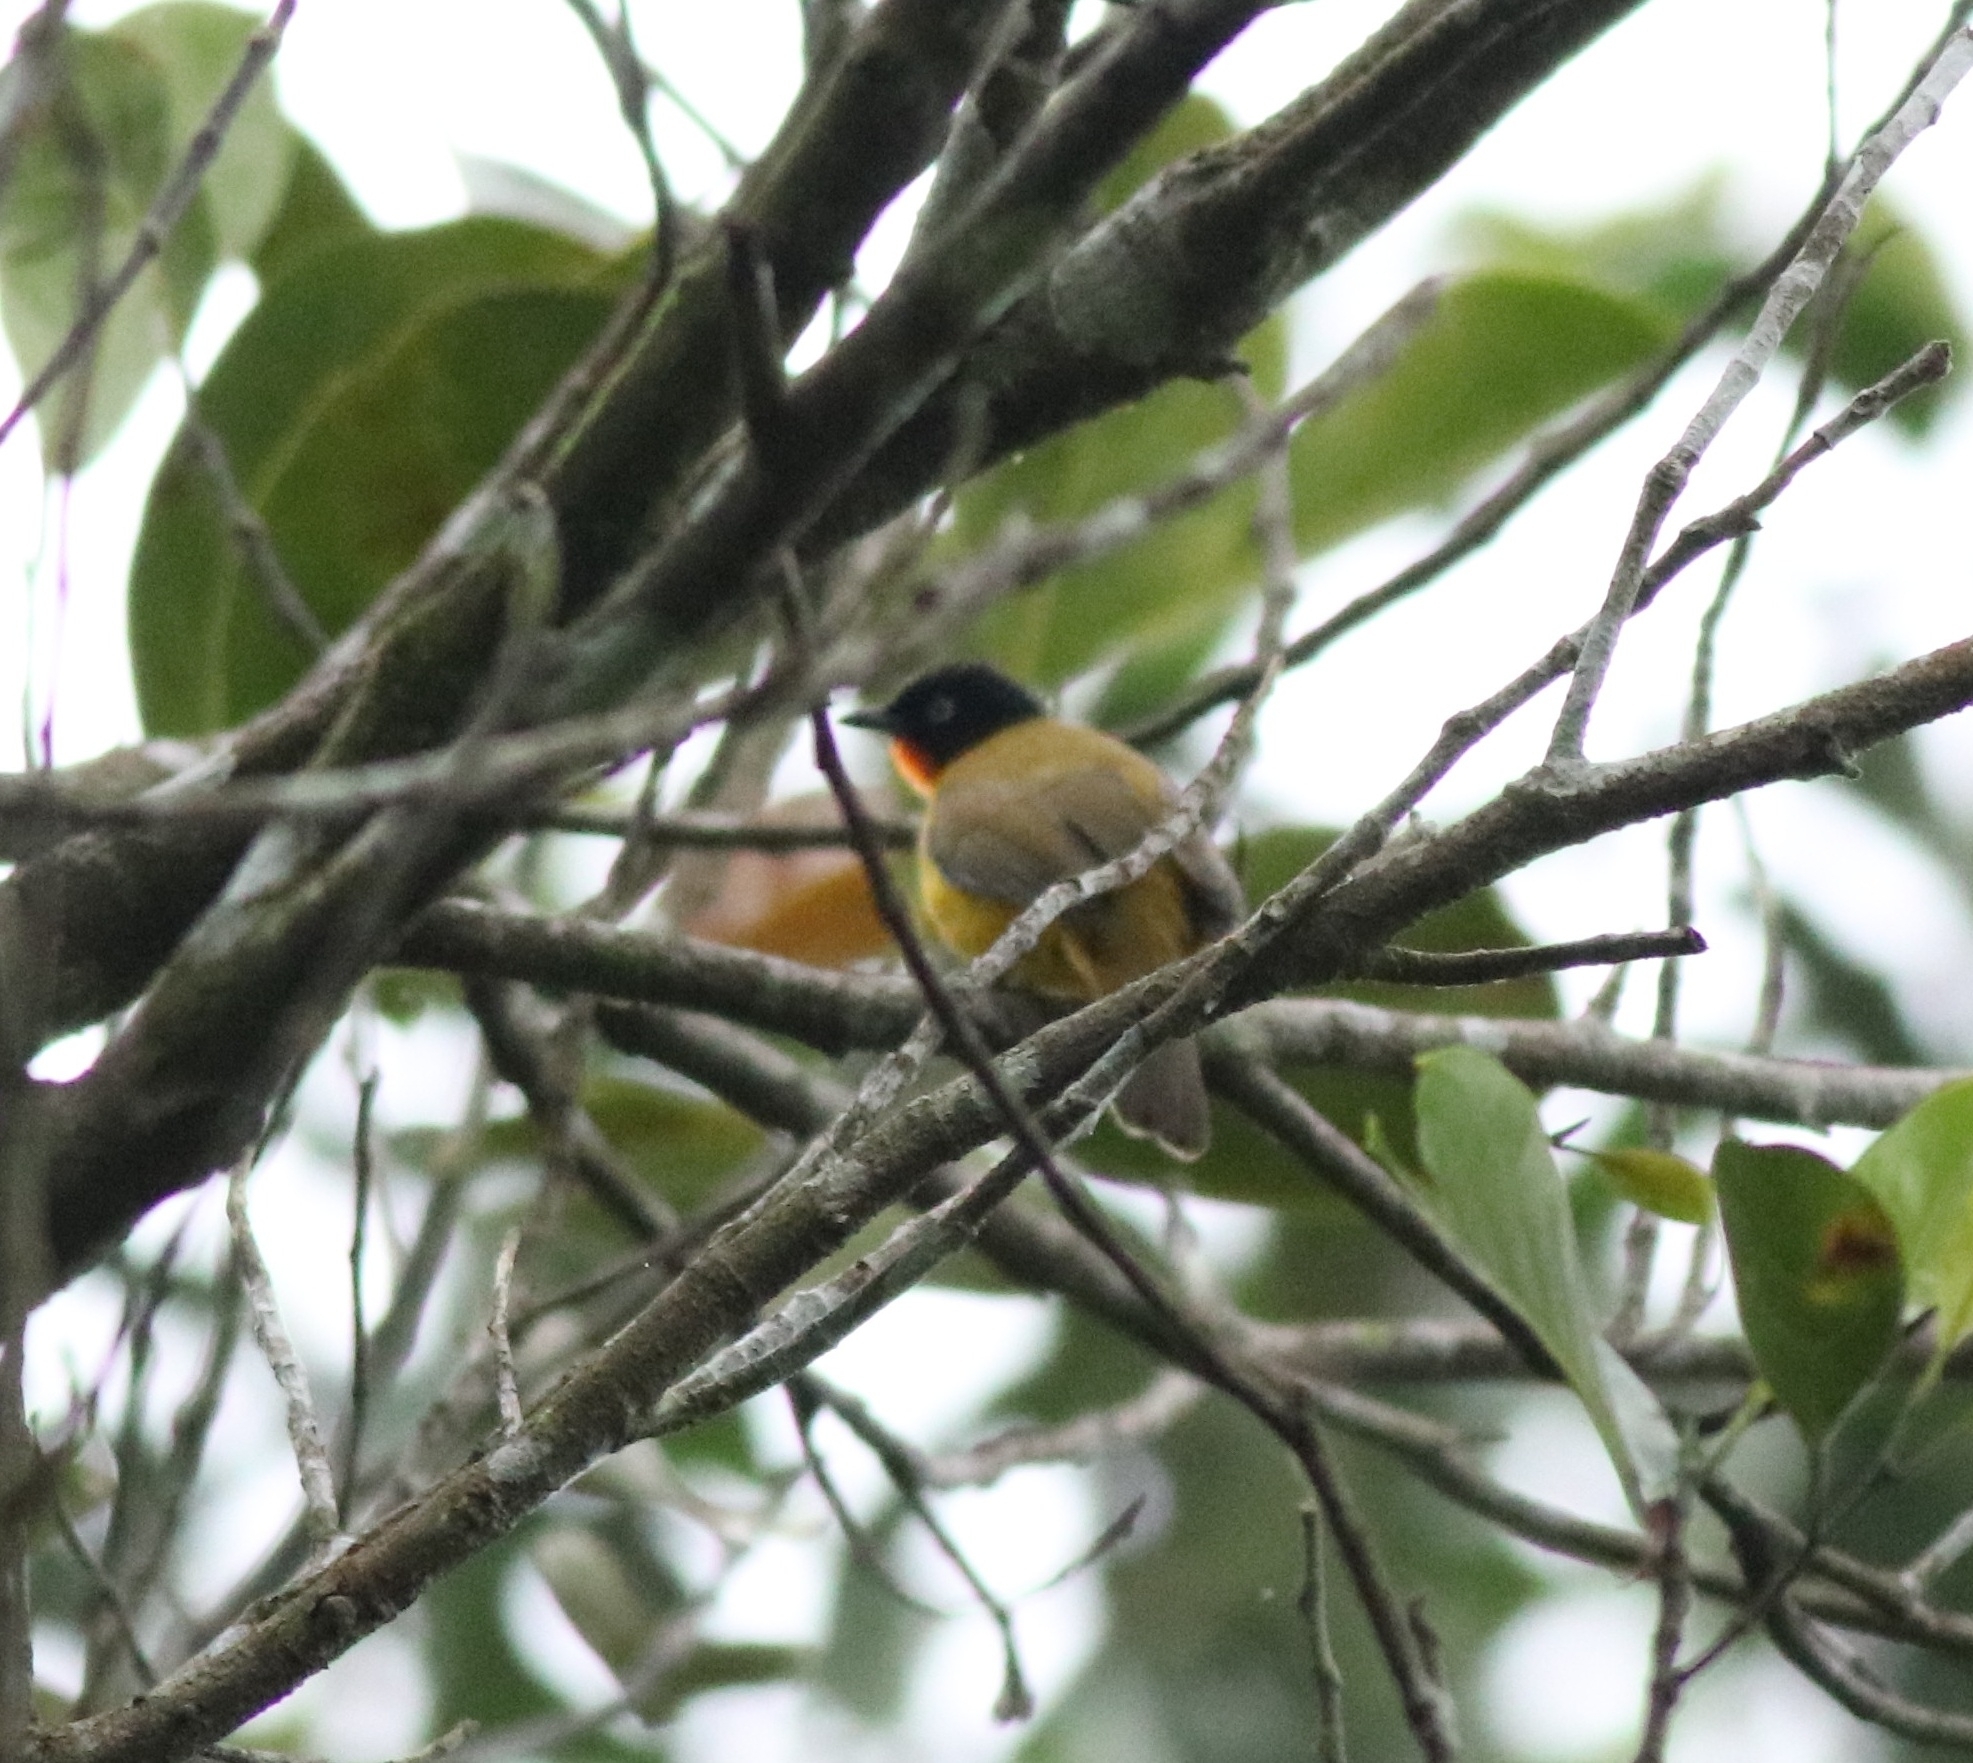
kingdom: Animalia
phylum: Chordata
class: Aves
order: Passeriformes
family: Pycnonotidae
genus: Pycnonotus
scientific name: Pycnonotus gularis
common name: Flame-throated bulbul
